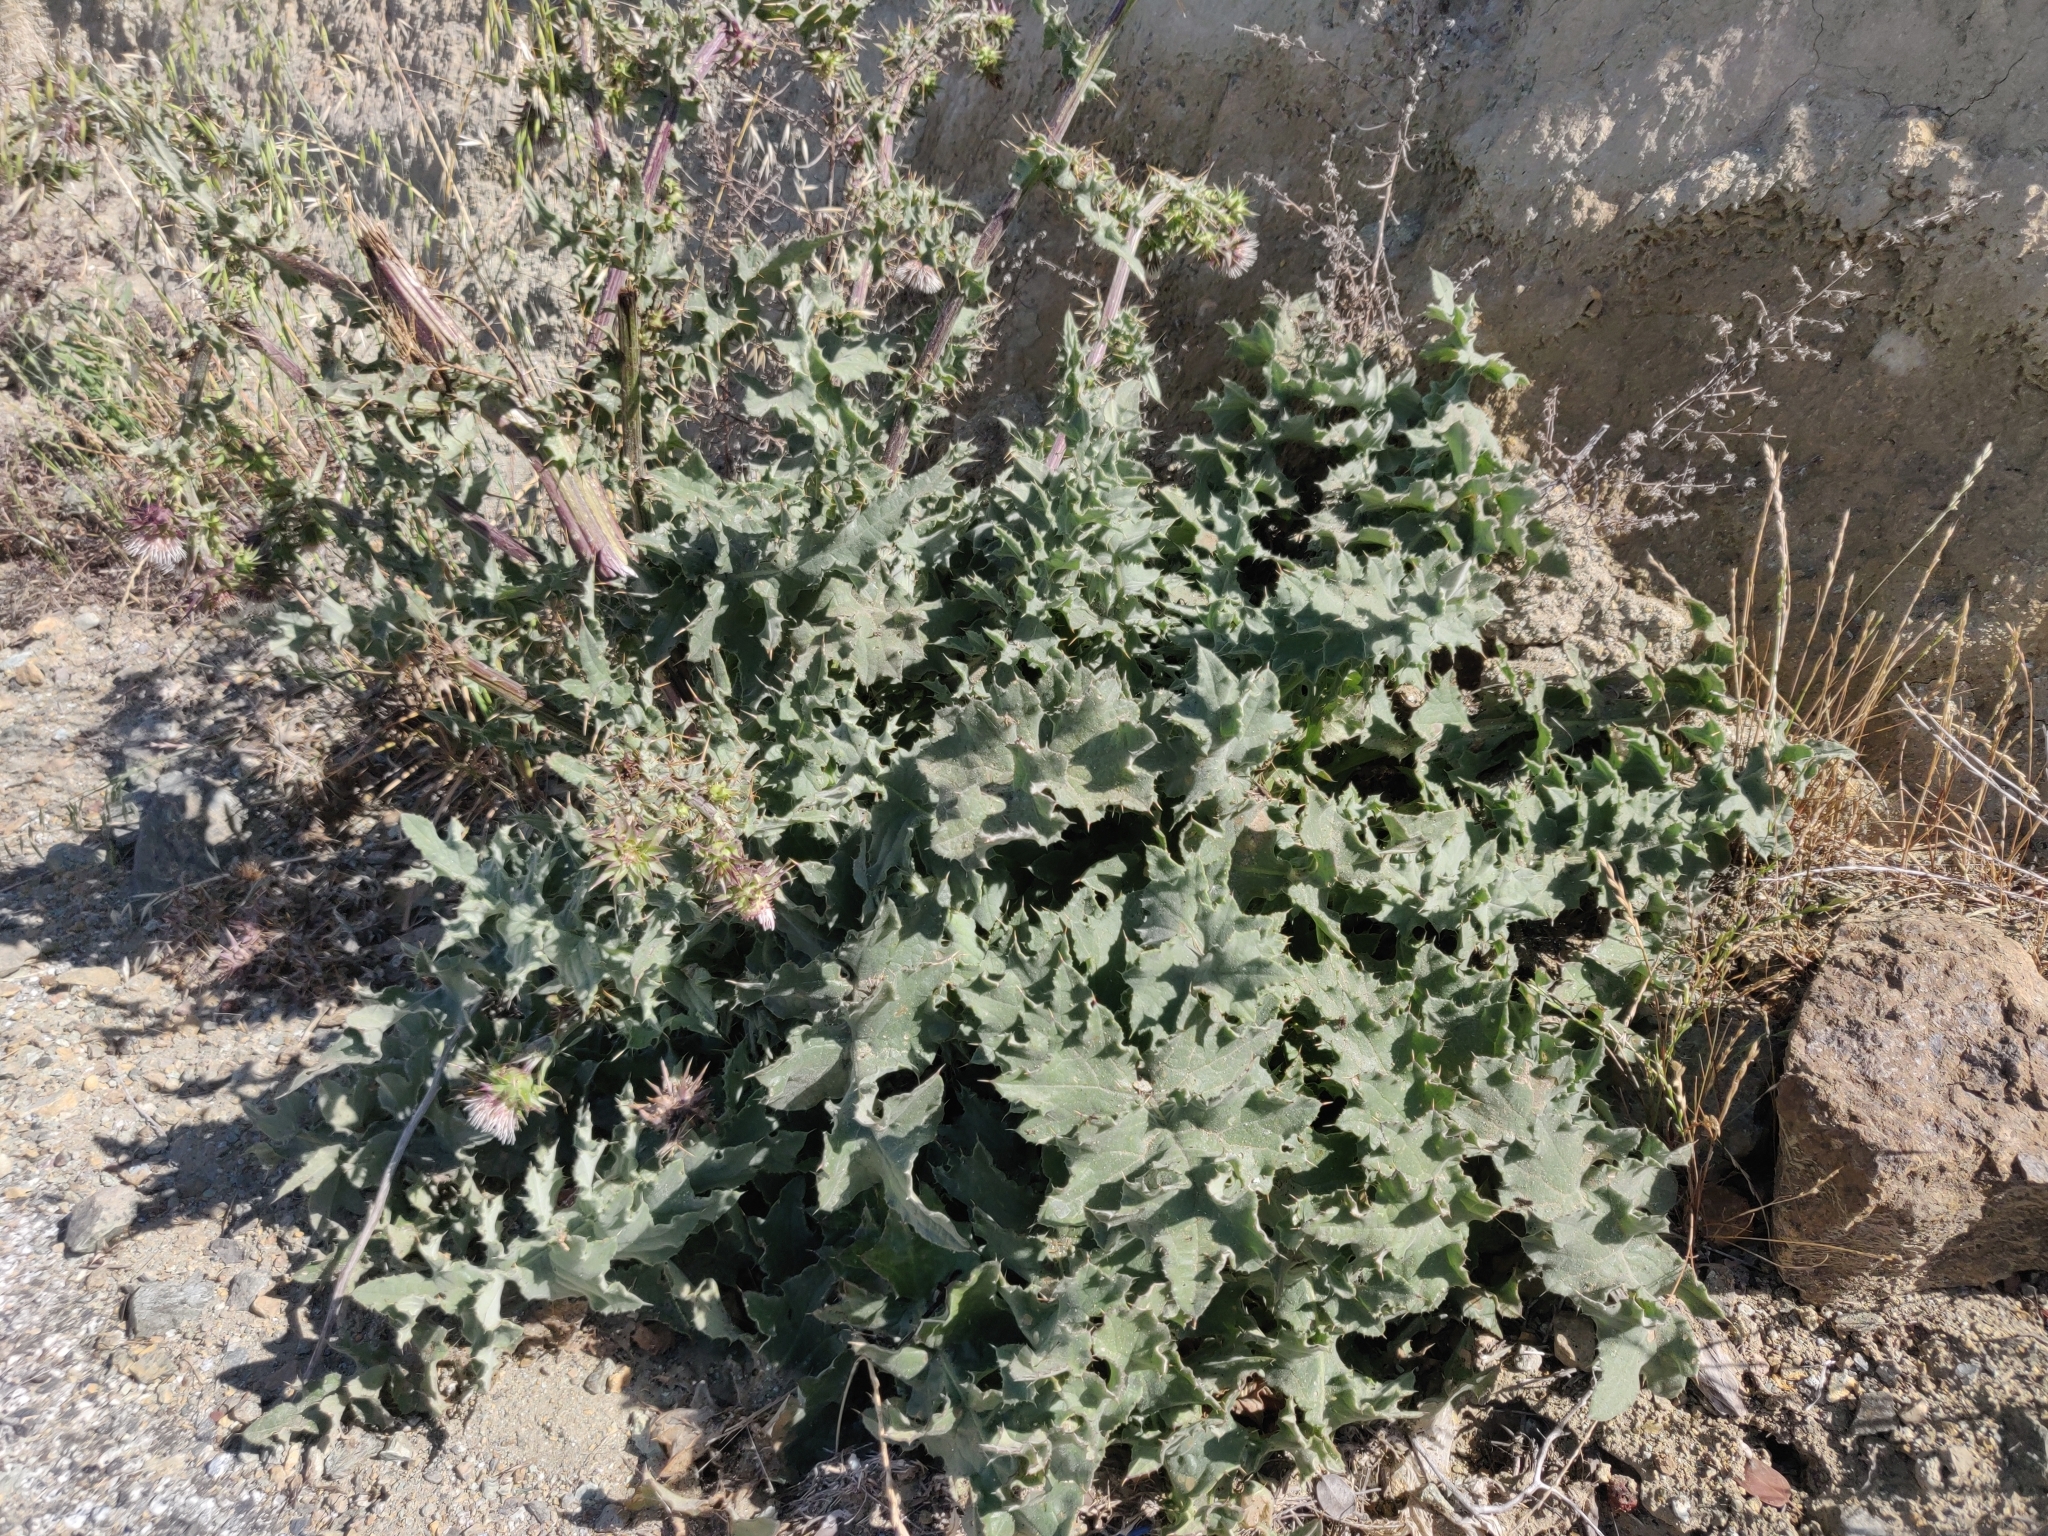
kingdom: Plantae
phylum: Tracheophyta
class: Magnoliopsida
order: Asterales
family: Asteraceae
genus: Cirsium
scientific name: Cirsium fontinale
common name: Fountain thistle
